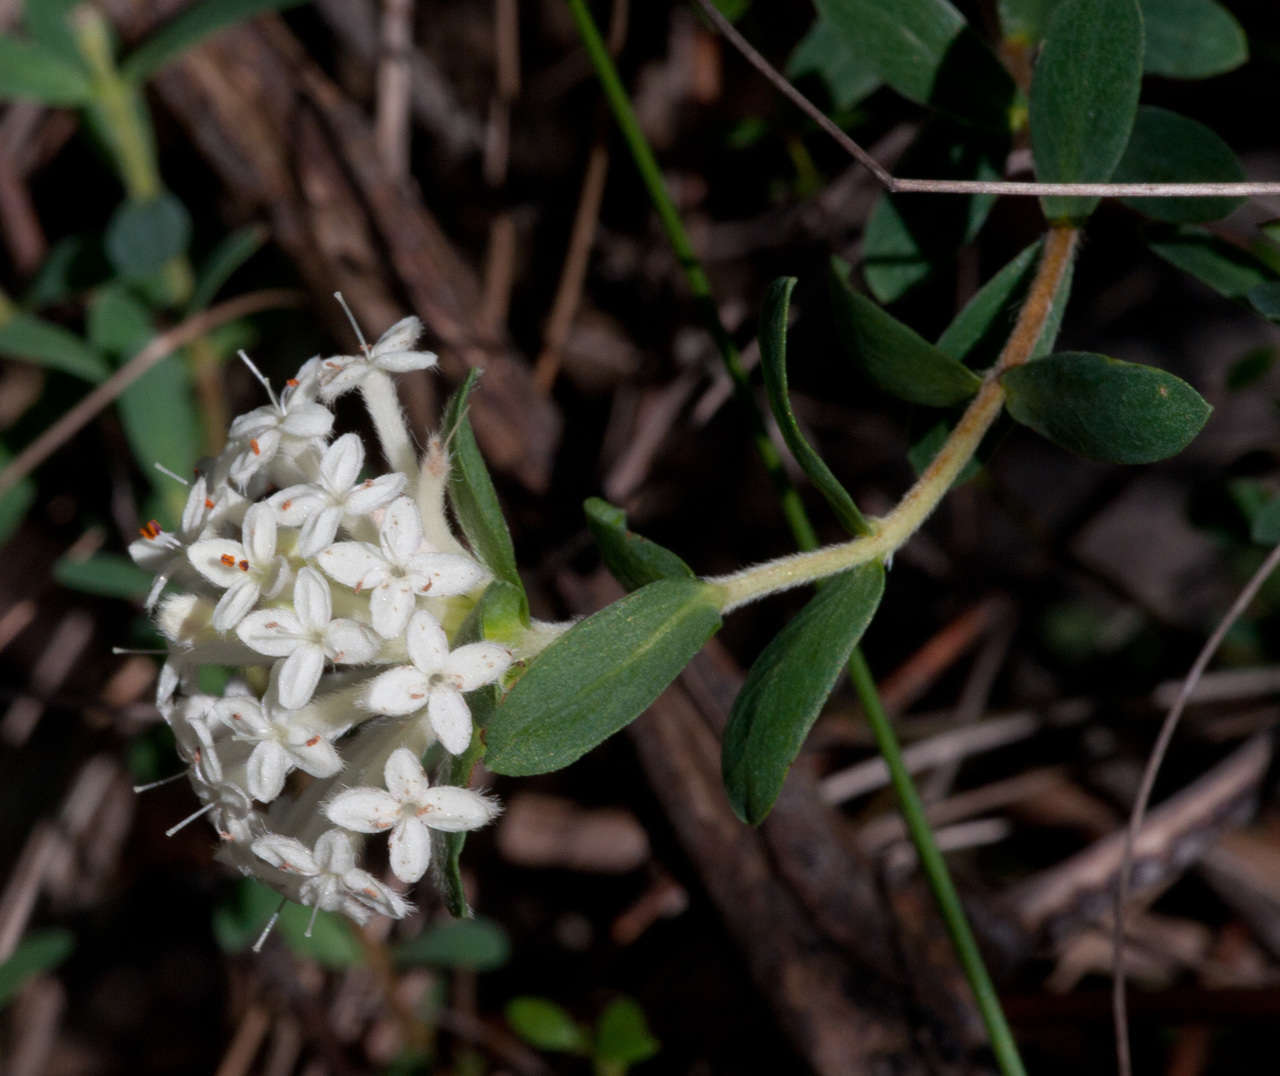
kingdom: Plantae
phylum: Tracheophyta
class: Magnoliopsida
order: Malvales
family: Thymelaeaceae
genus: Pimelea
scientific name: Pimelea humilis
